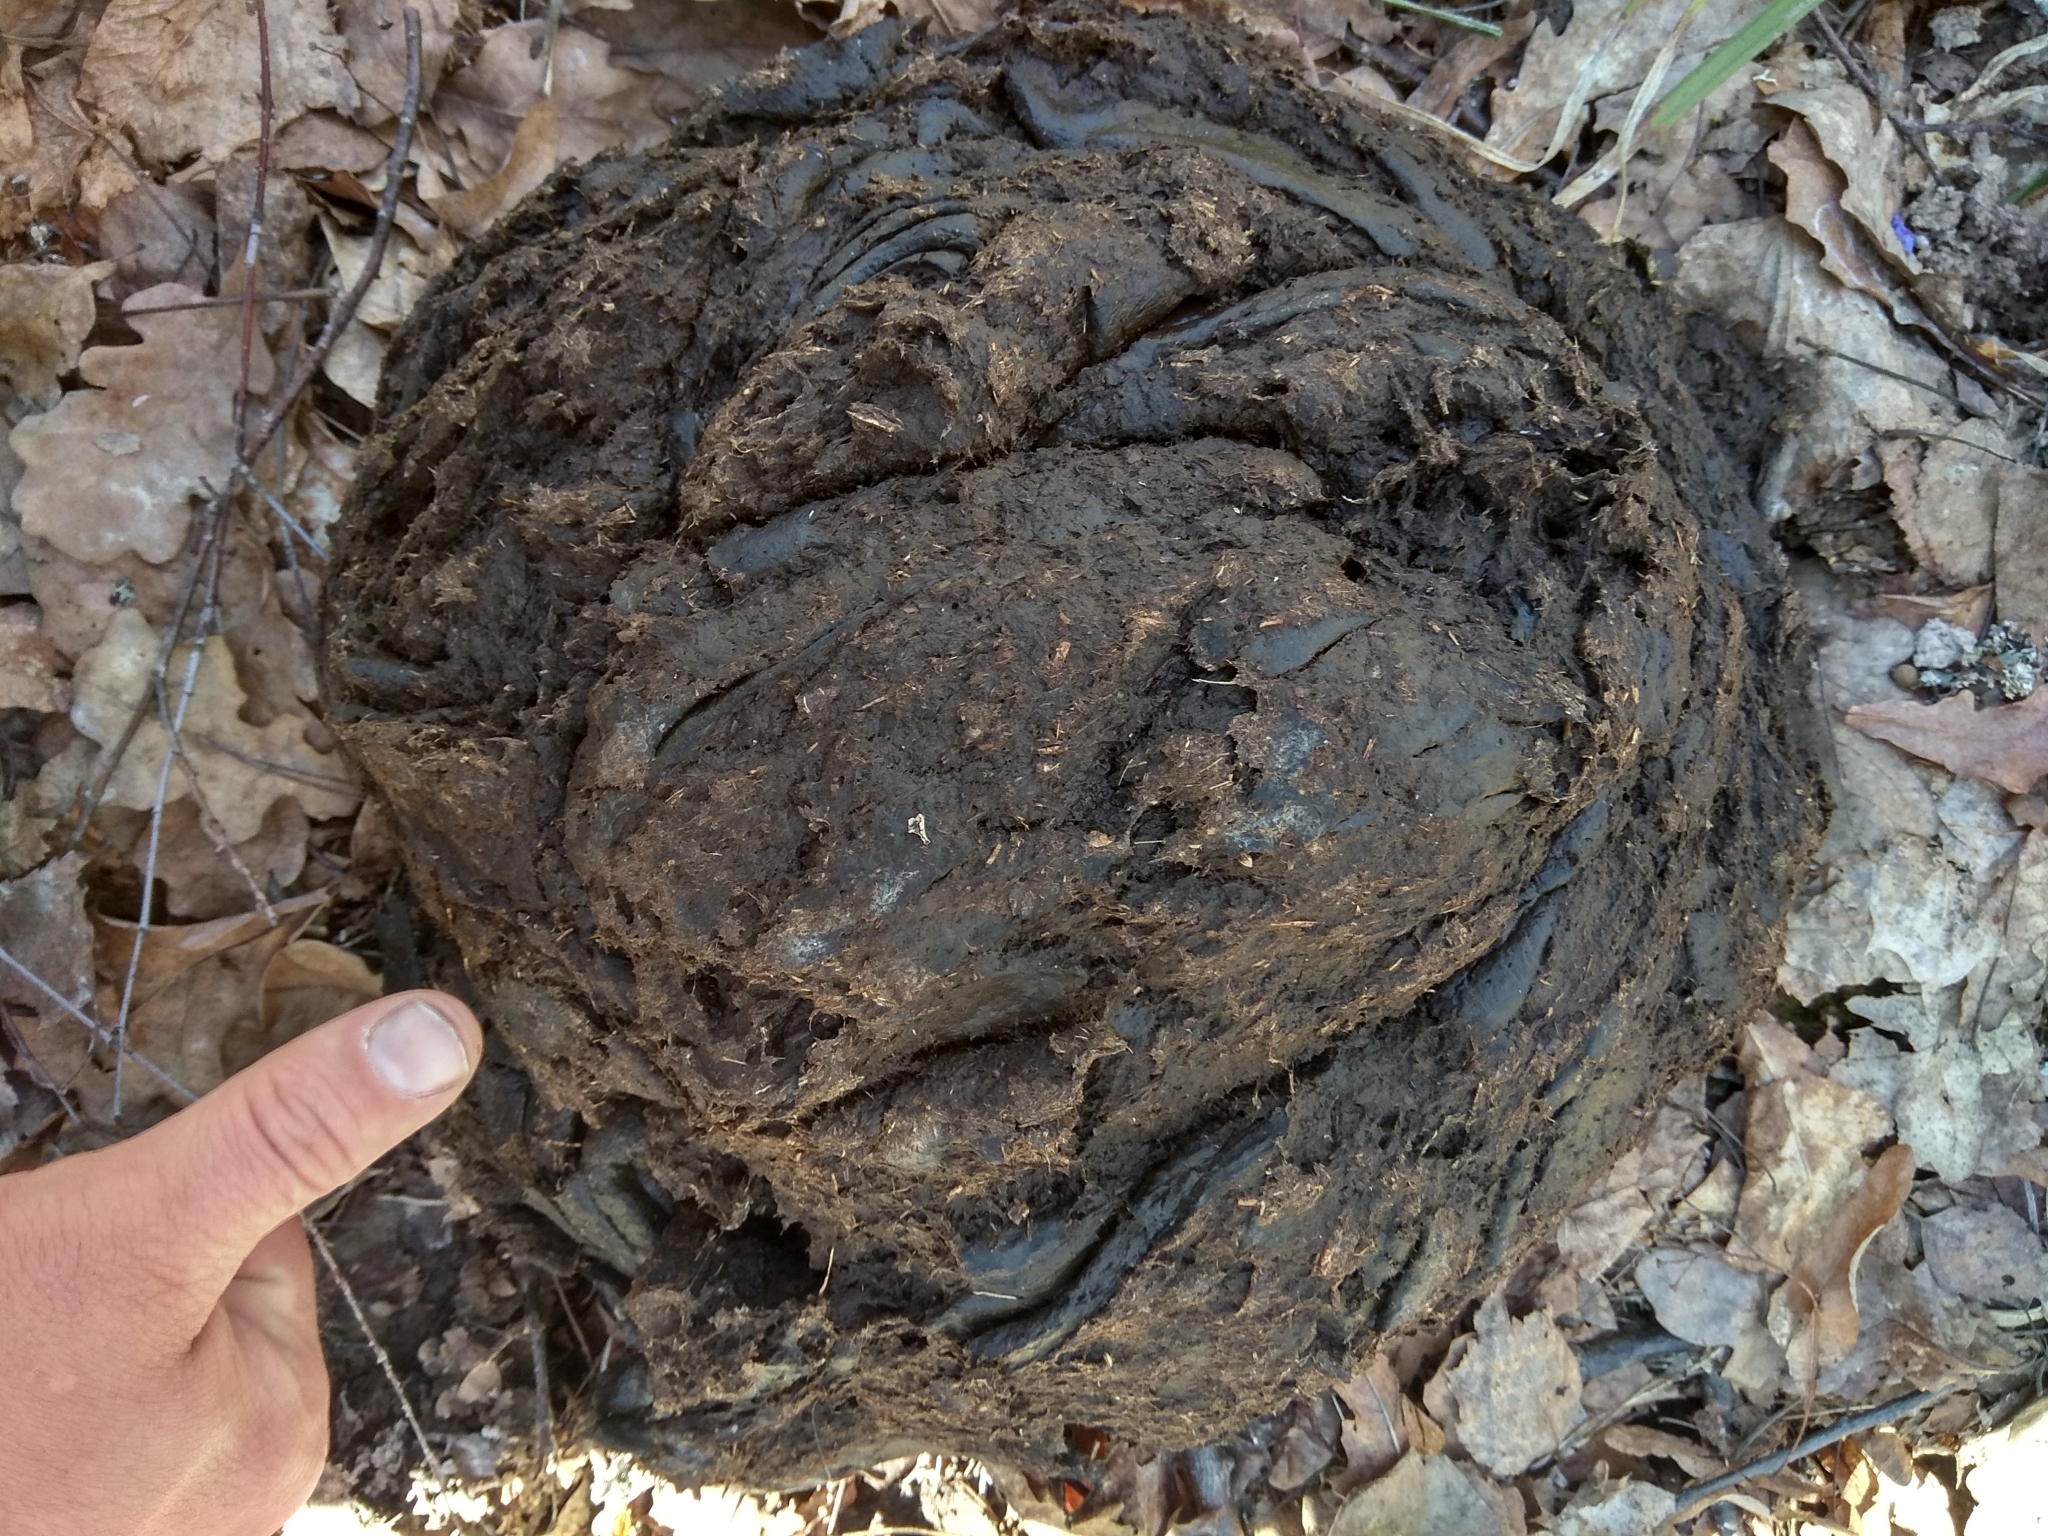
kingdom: Animalia
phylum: Chordata
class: Mammalia
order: Artiodactyla
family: Bovidae
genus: Bison
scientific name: Bison bonasus
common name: European bison
